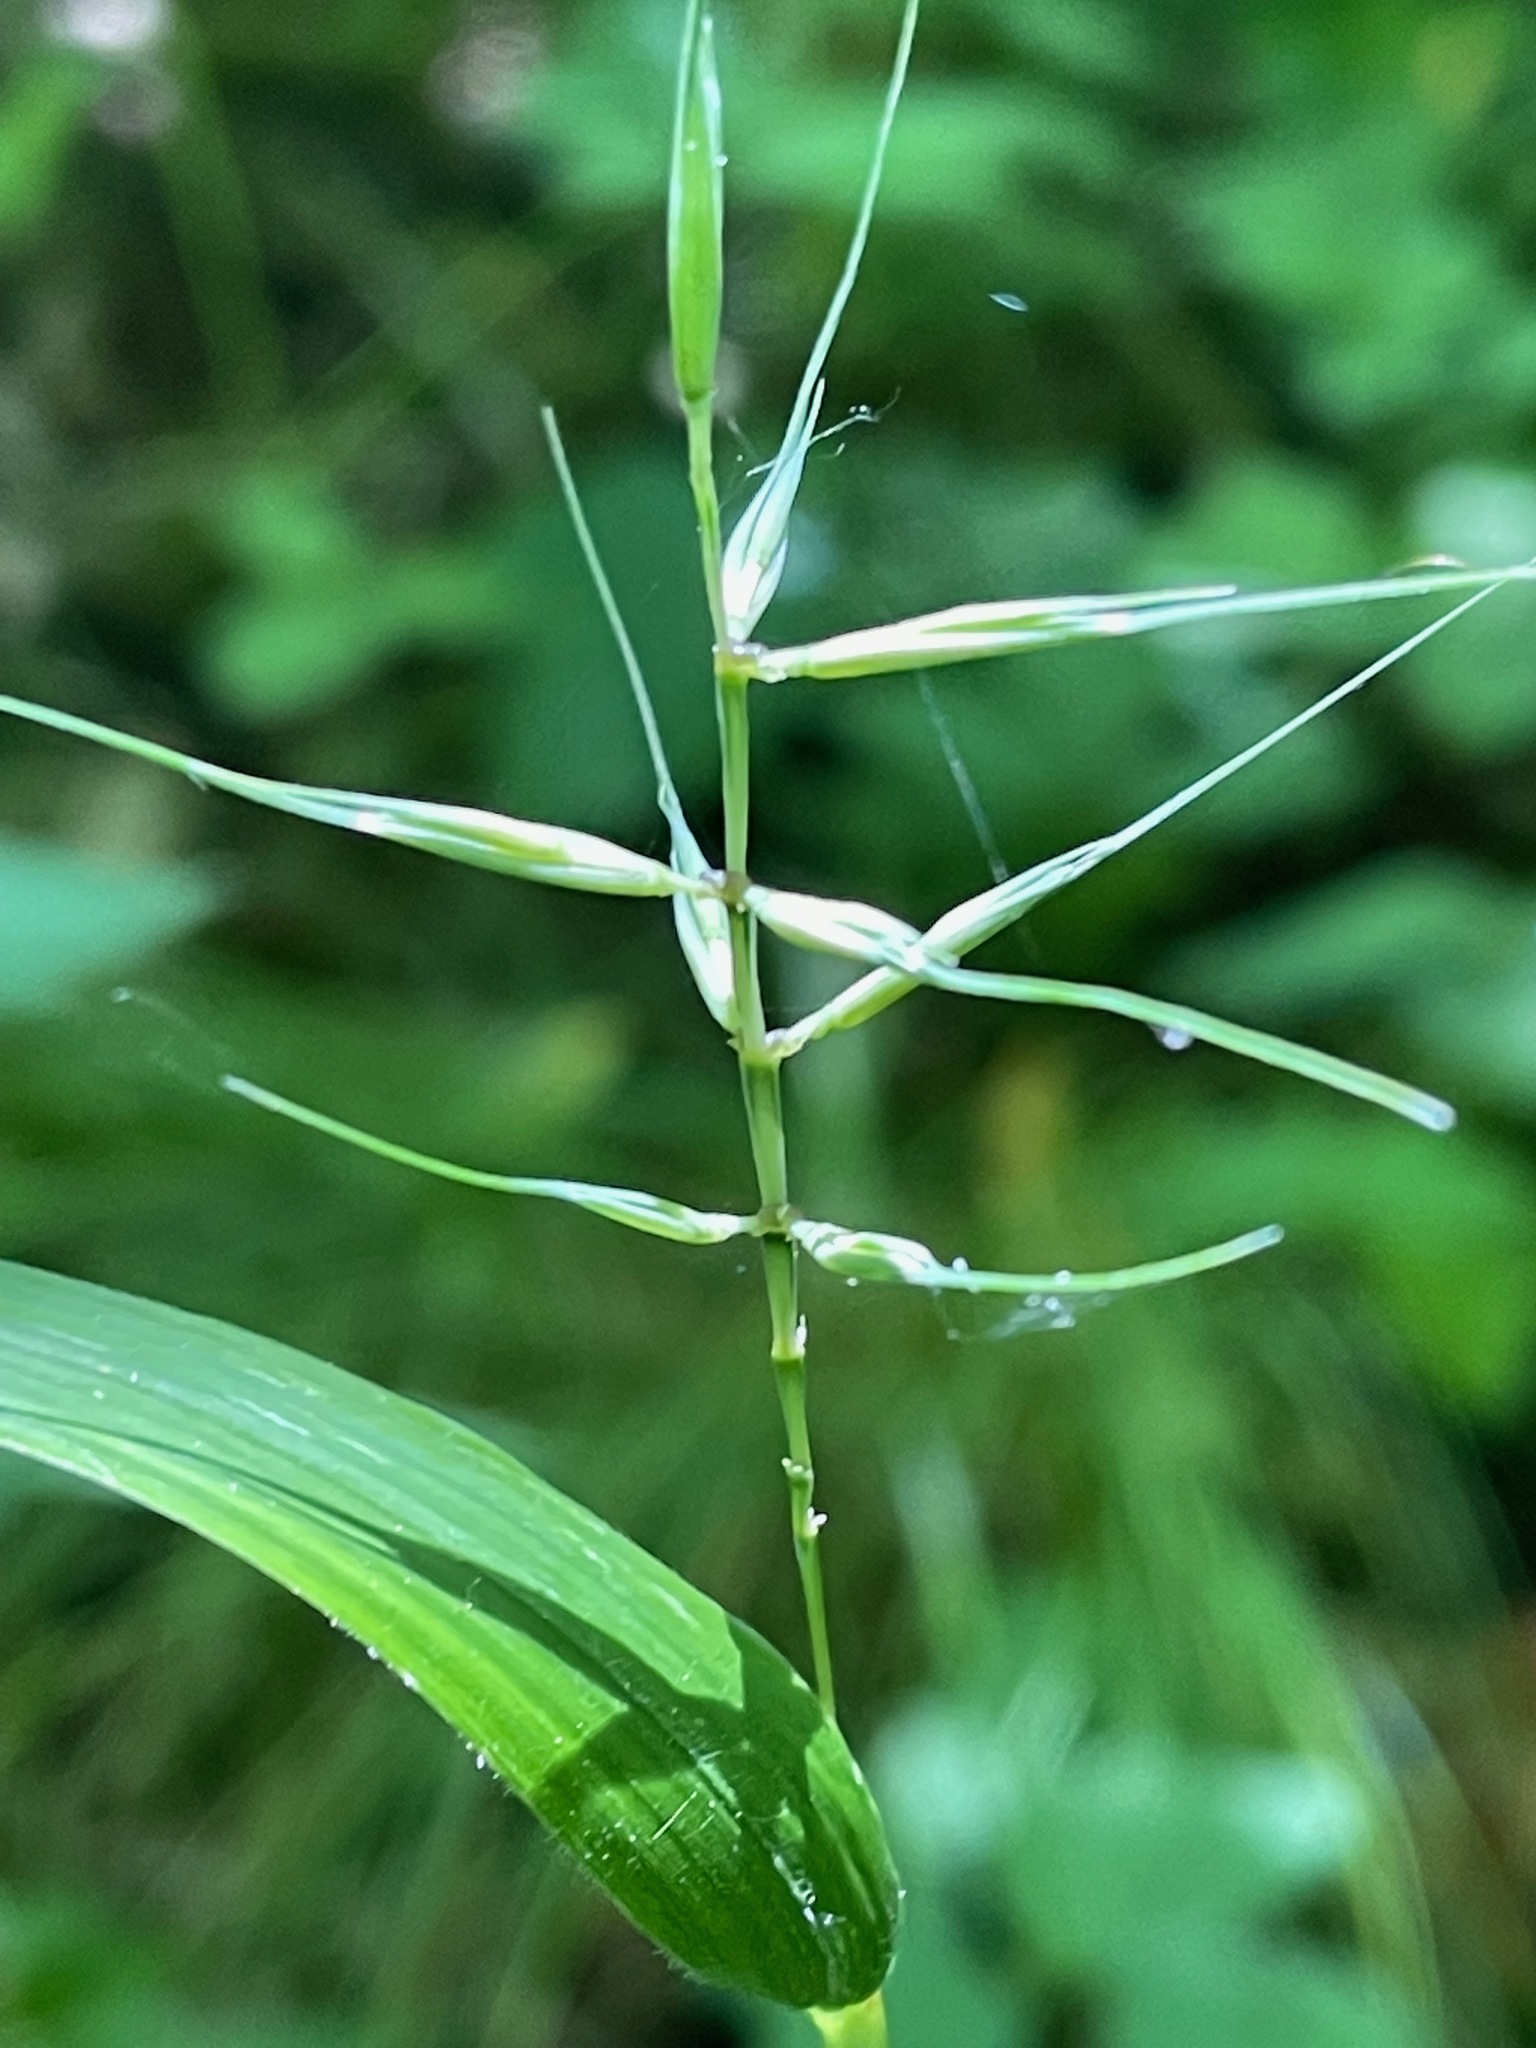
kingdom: Plantae
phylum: Tracheophyta
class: Liliopsida
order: Poales
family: Poaceae
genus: Elymus
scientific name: Elymus hystrix
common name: Bottlebrush grass
